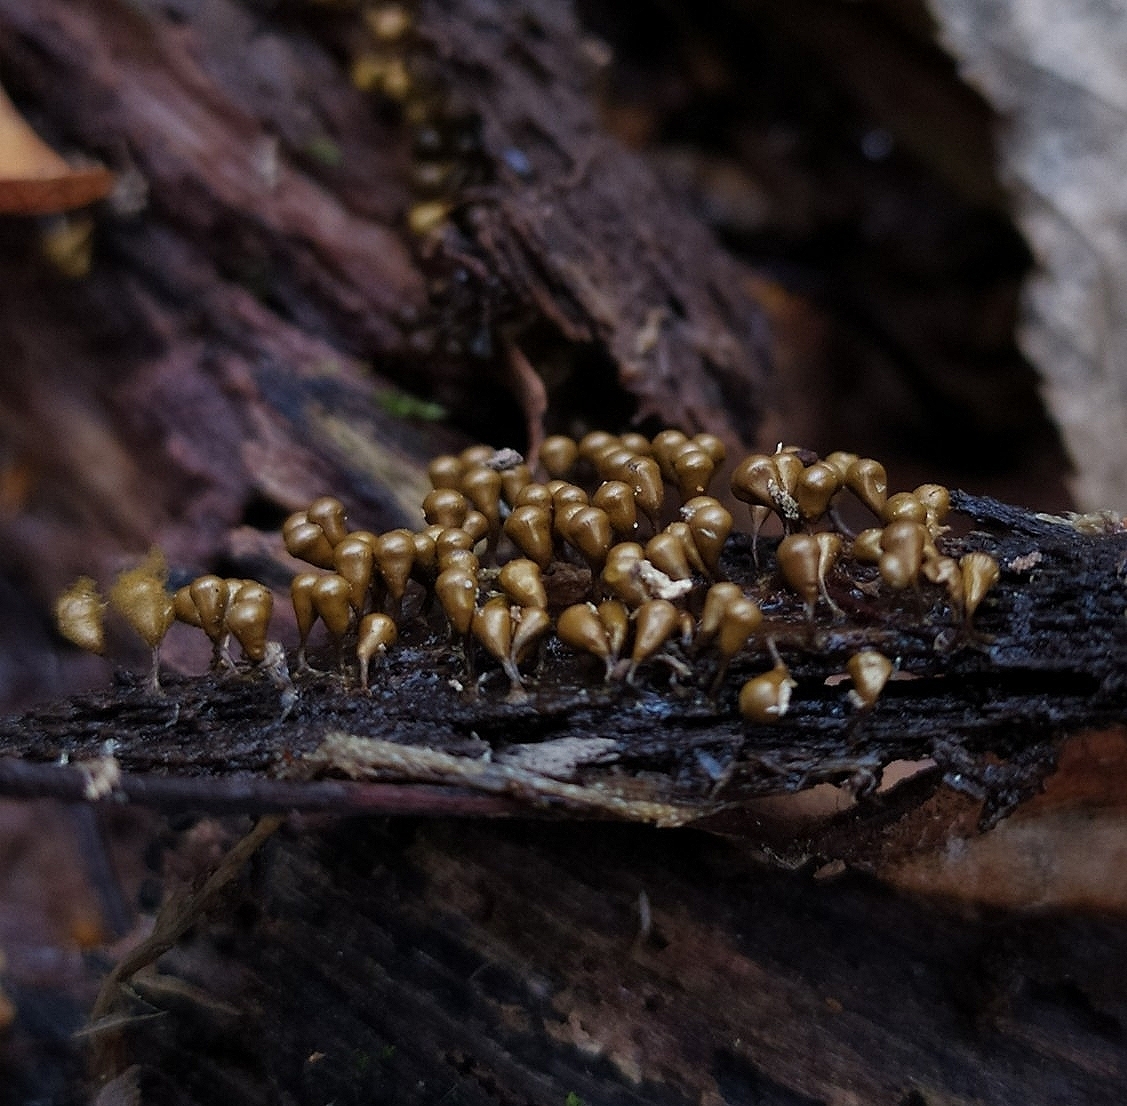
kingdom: Protozoa
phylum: Mycetozoa
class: Myxomycetes
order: Trichiales
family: Arcyriaceae
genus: Hemitrichia
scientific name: Hemitrichia decipiens
